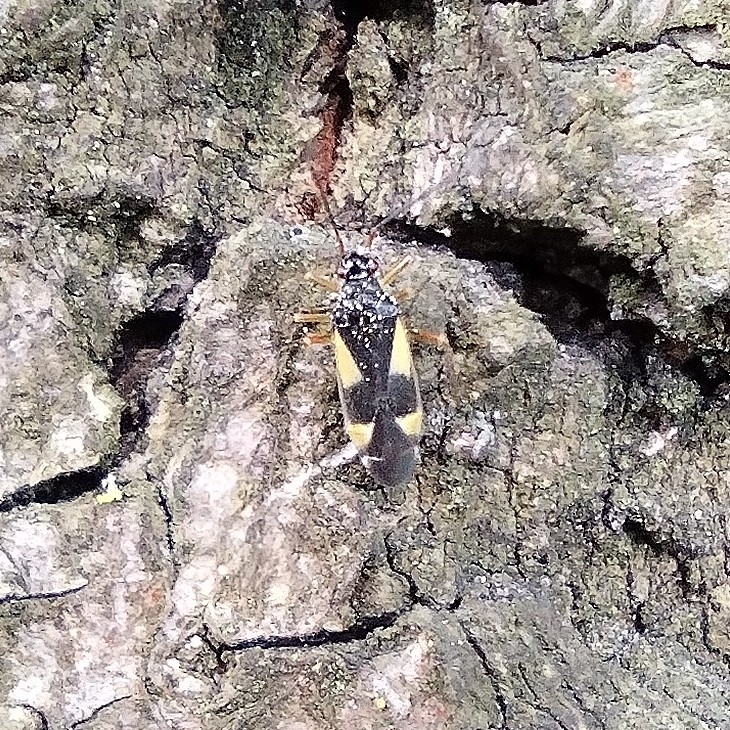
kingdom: Animalia
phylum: Arthropoda
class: Insecta
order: Hemiptera
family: Miridae
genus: Dryophilocoris
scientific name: Dryophilocoris flavoquadrimaculatus
